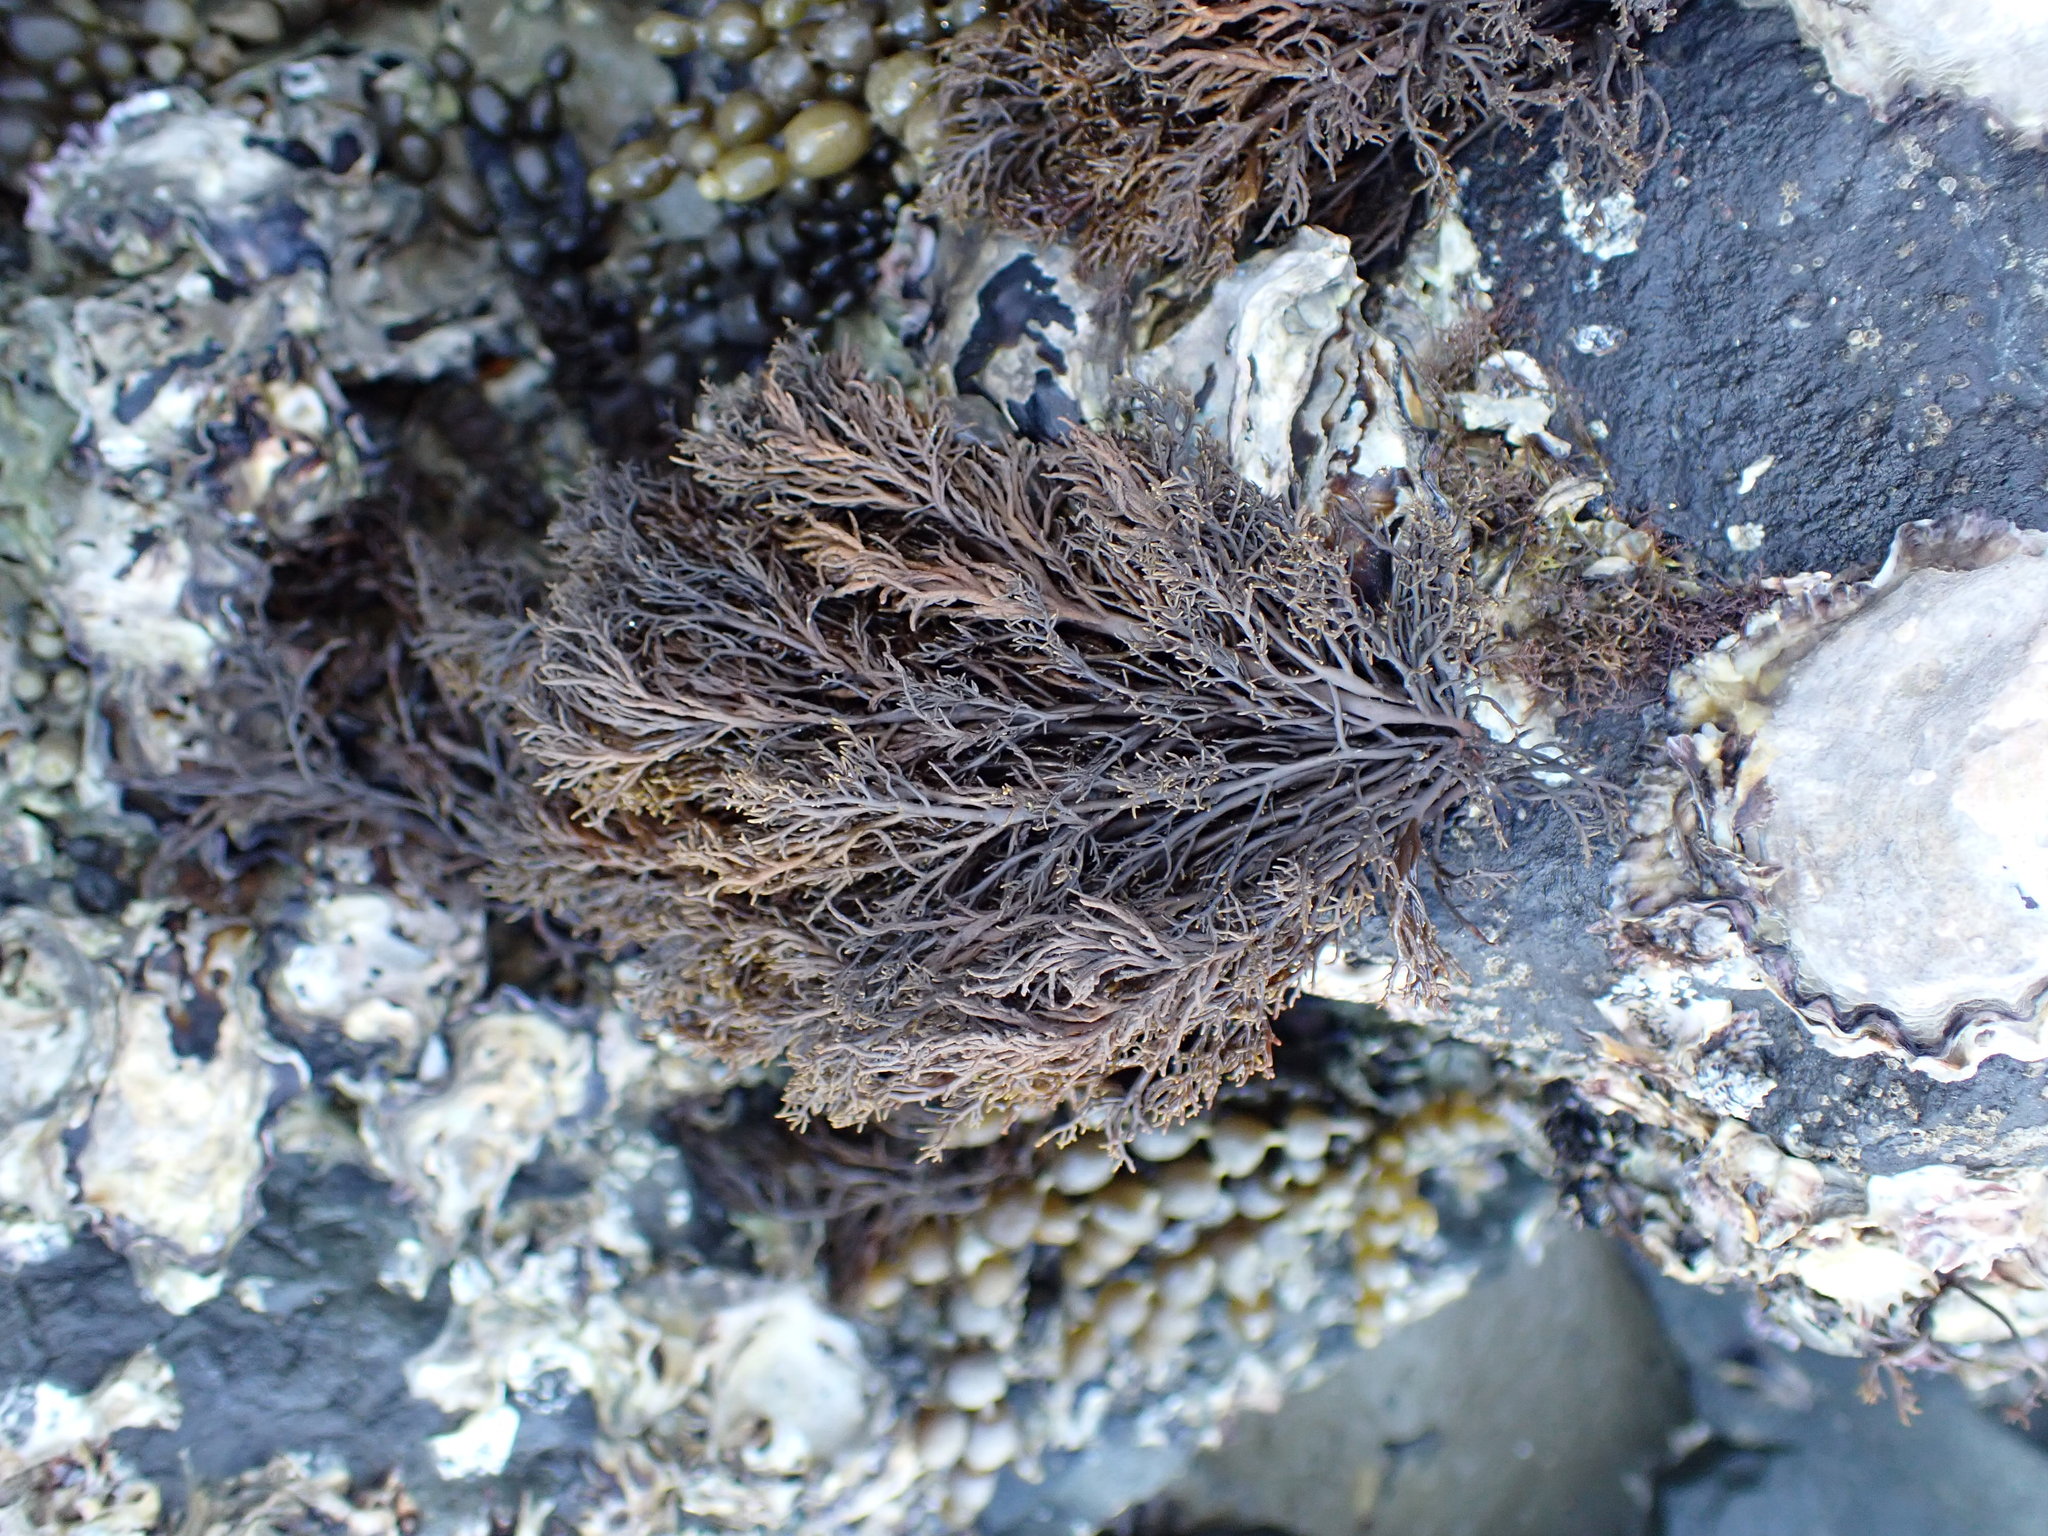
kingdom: Chromista
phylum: Ochrophyta
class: Phaeophyceae
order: Scytothamnales
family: Scytothamnaceae
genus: Scytothamnus
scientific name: Scytothamnus australis
